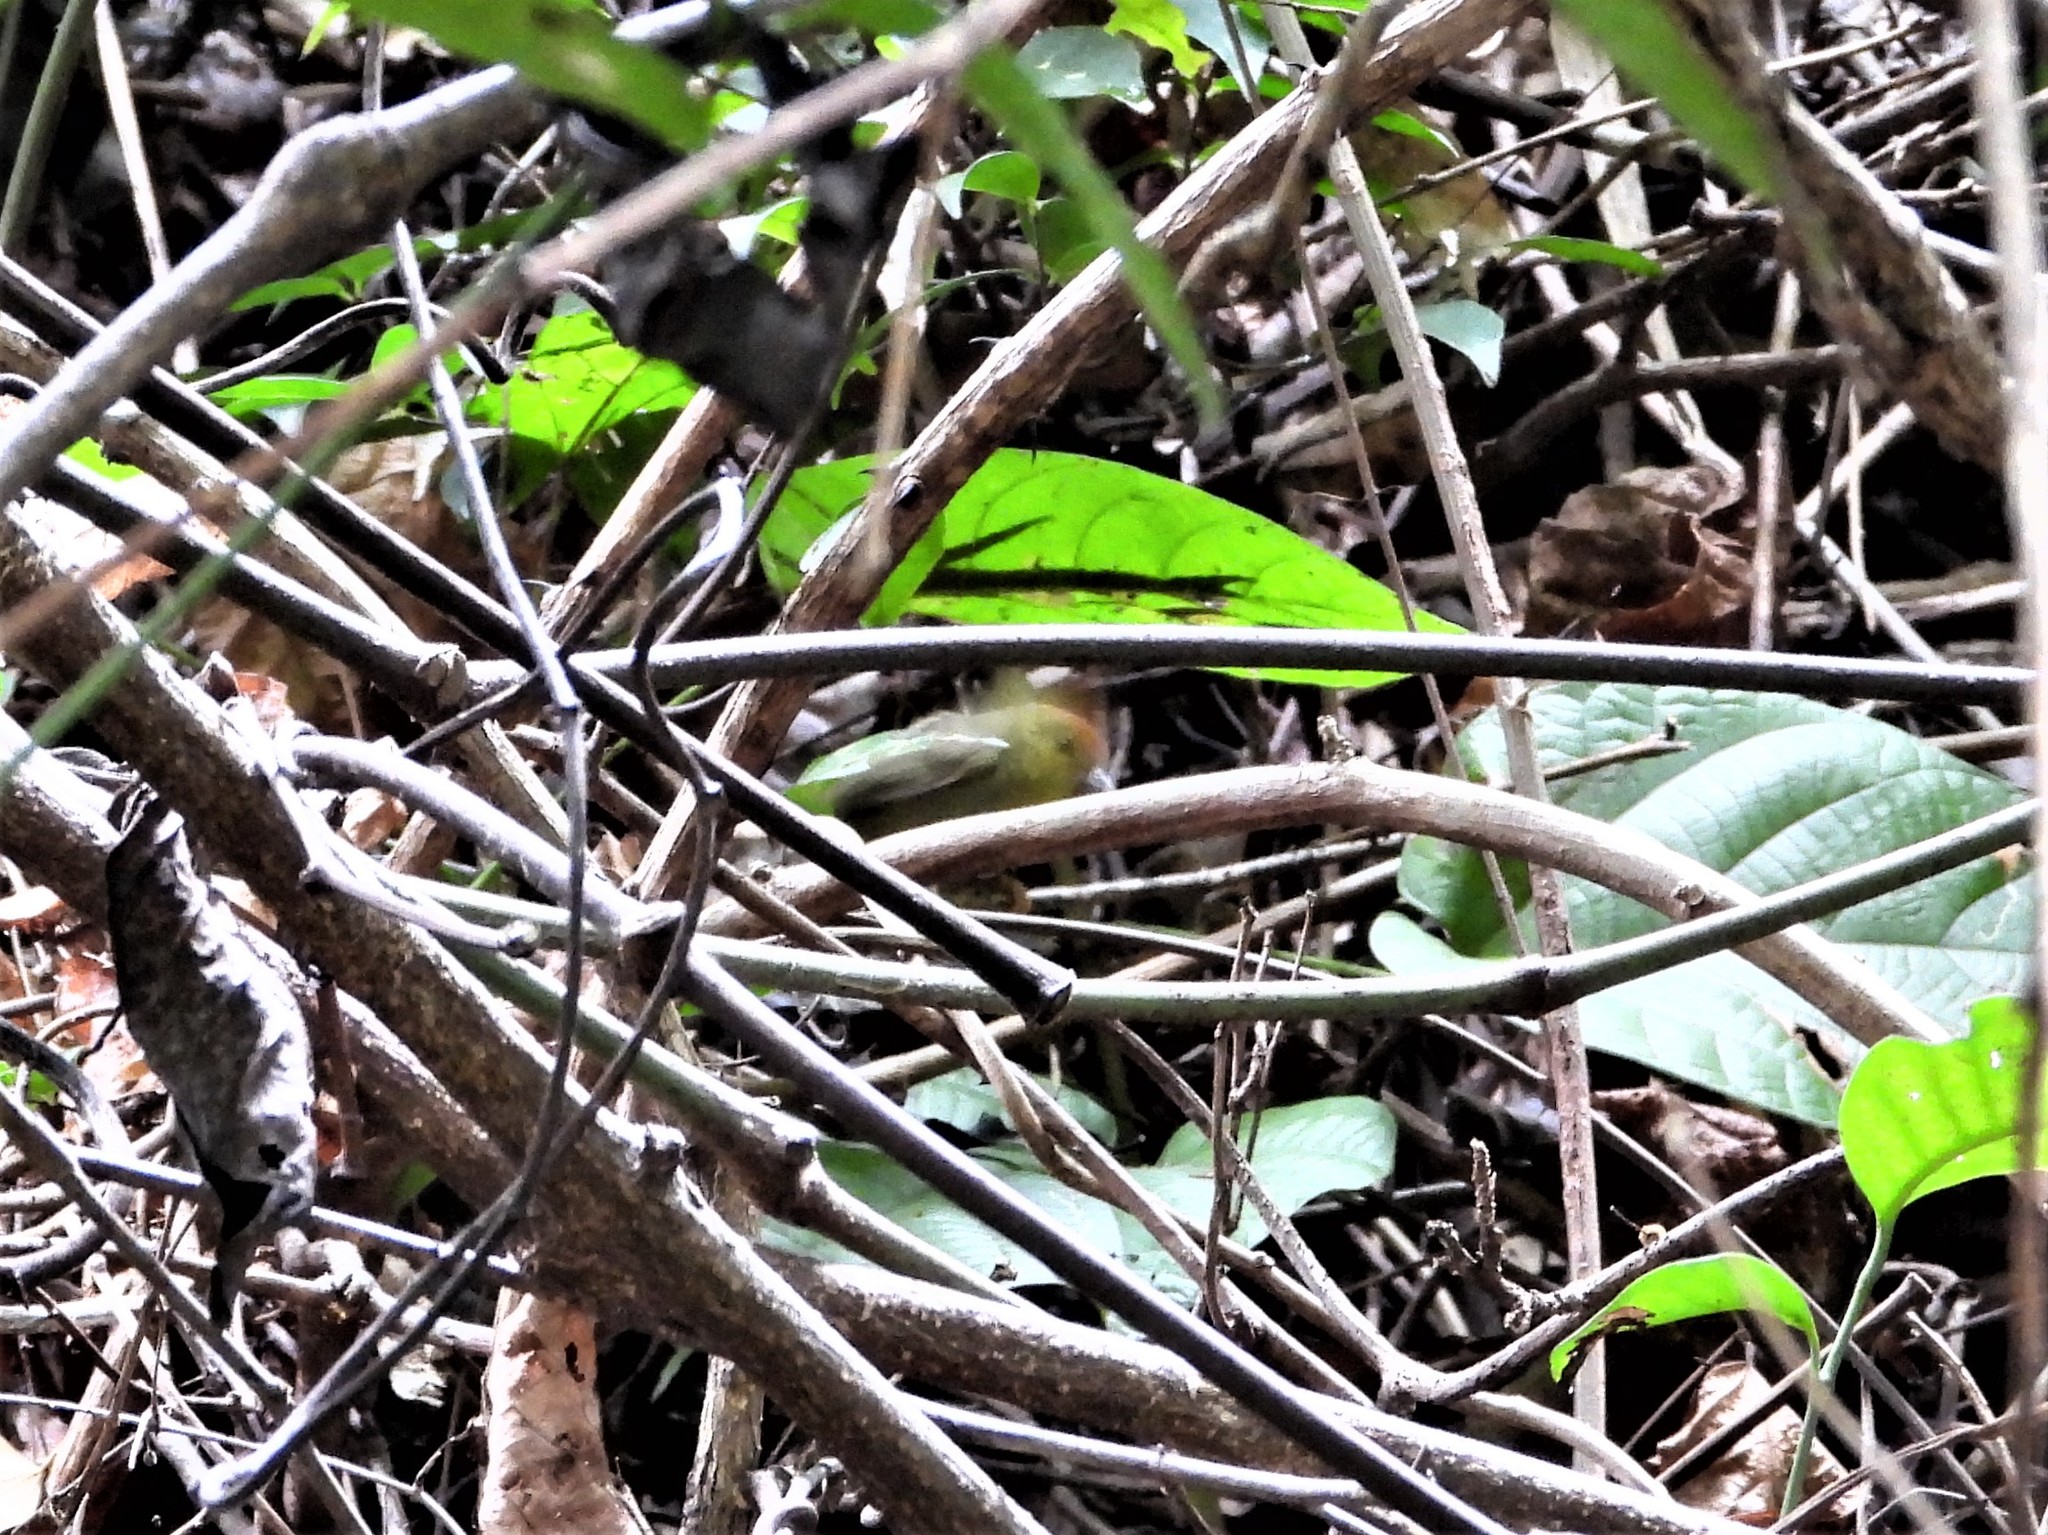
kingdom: Animalia
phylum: Chordata
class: Aves
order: Passeriformes
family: Timaliidae
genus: Stachyridopsis
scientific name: Stachyridopsis ruficeps
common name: Rufous-capped babbler
